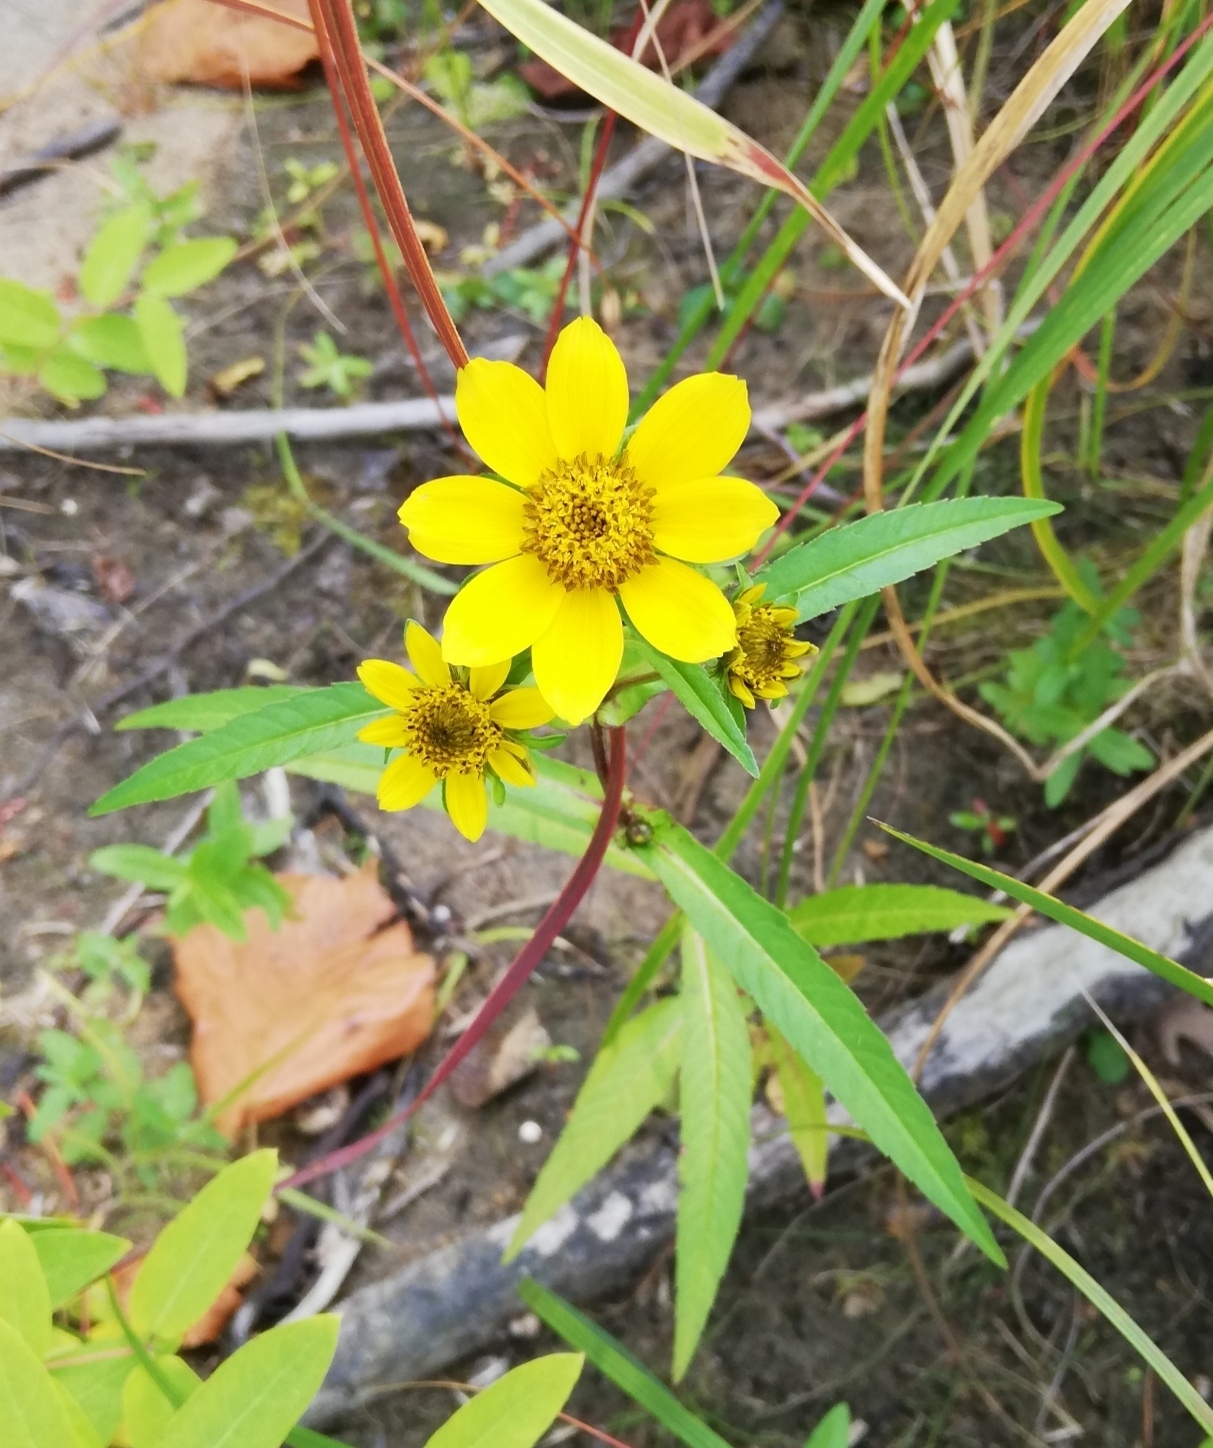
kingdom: Plantae
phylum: Tracheophyta
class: Magnoliopsida
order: Asterales
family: Asteraceae
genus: Bidens
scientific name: Bidens cernua
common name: Nodding bur-marigold
